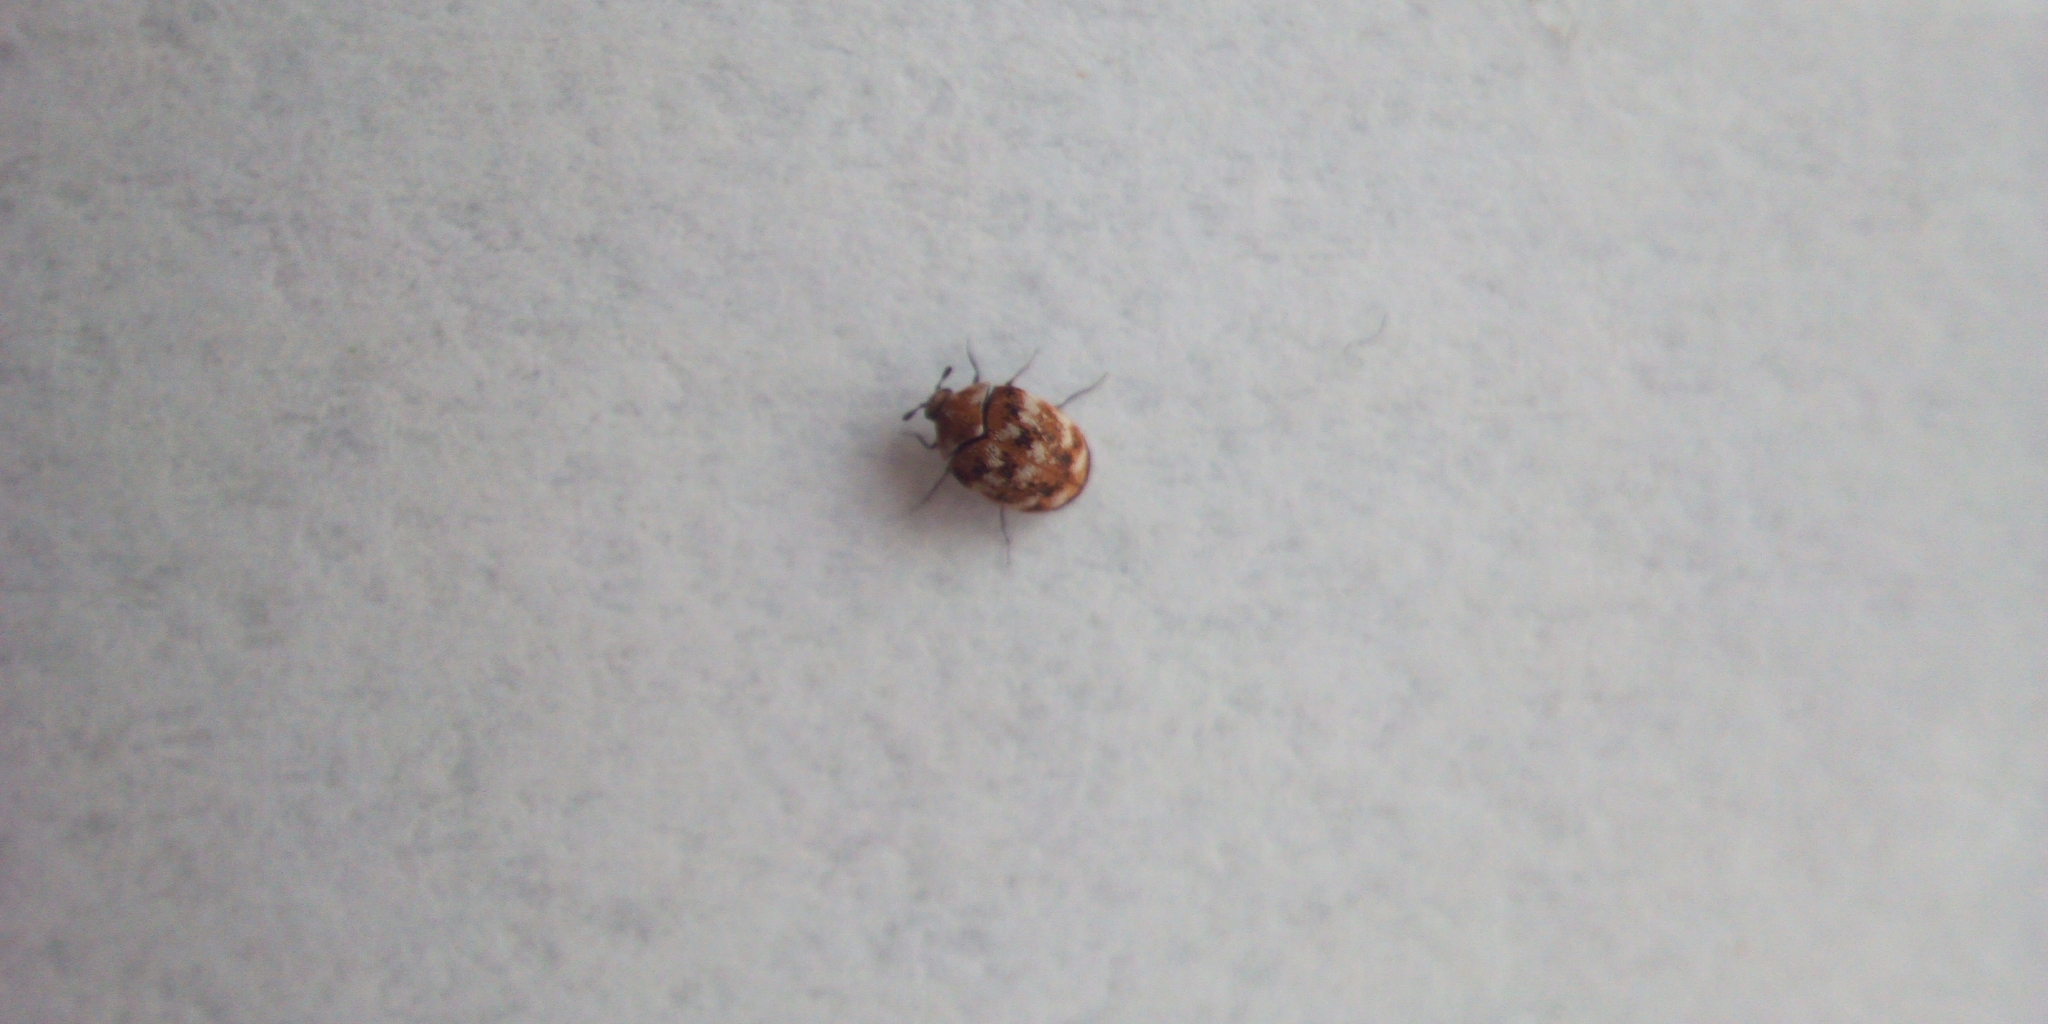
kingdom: Animalia
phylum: Arthropoda
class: Insecta
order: Coleoptera
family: Dermestidae
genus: Anthrenus
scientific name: Anthrenus verbasci
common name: Varied carpet beetle
